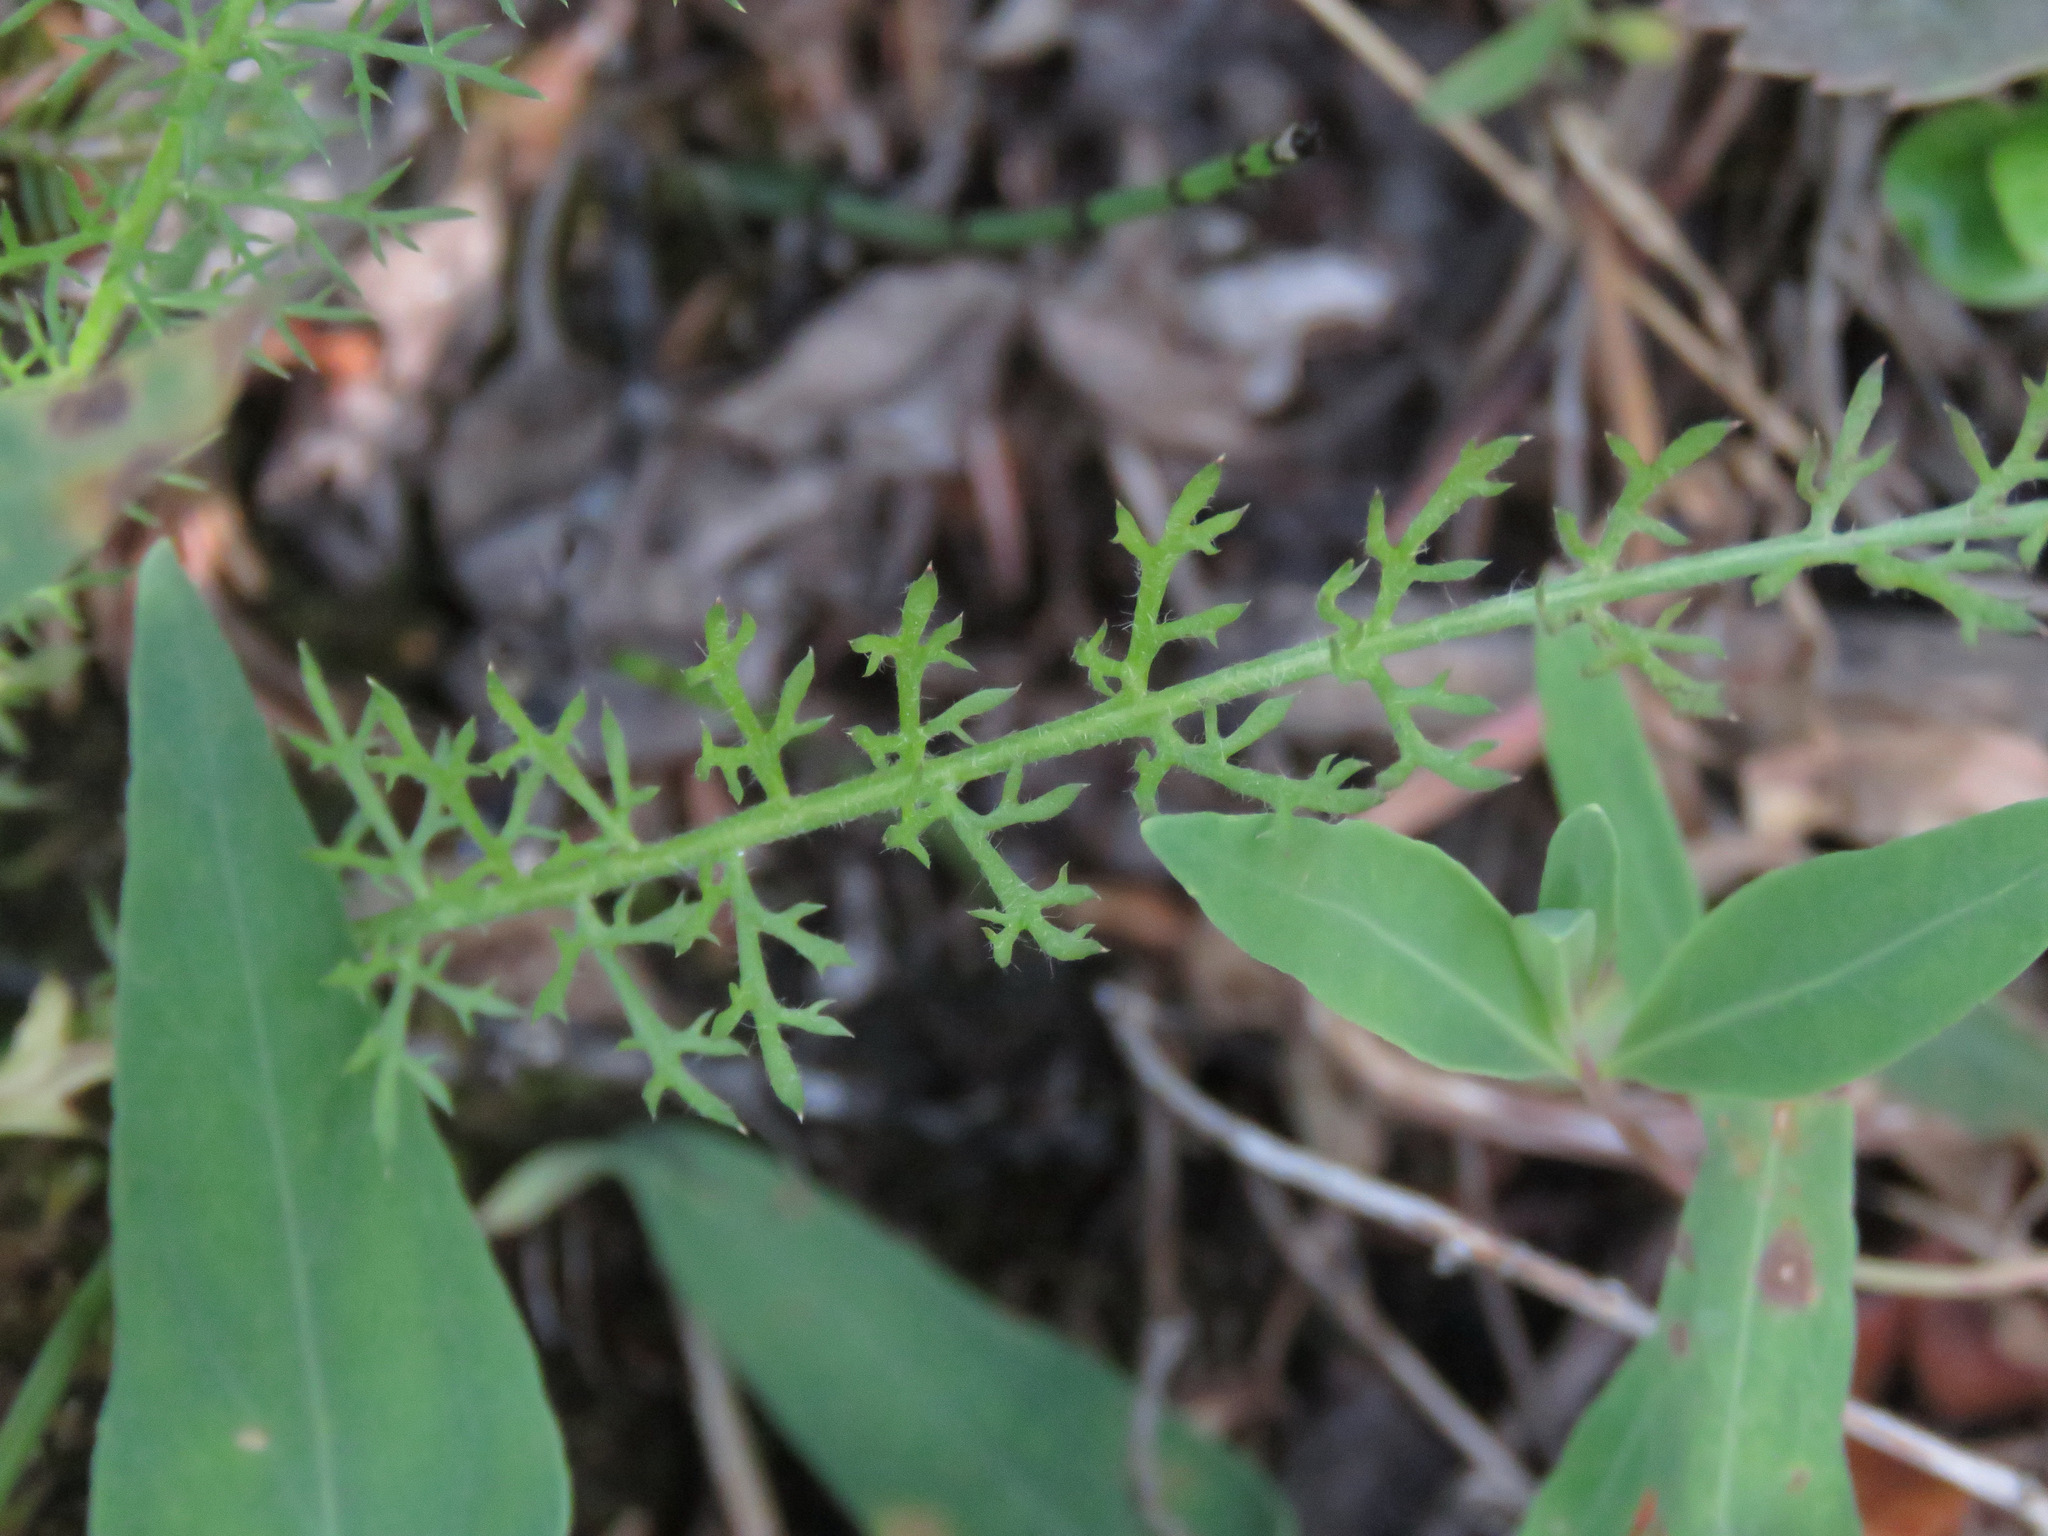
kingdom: Plantae
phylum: Tracheophyta
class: Magnoliopsida
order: Asterales
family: Asteraceae
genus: Achillea
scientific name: Achillea millefolium
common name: Yarrow
